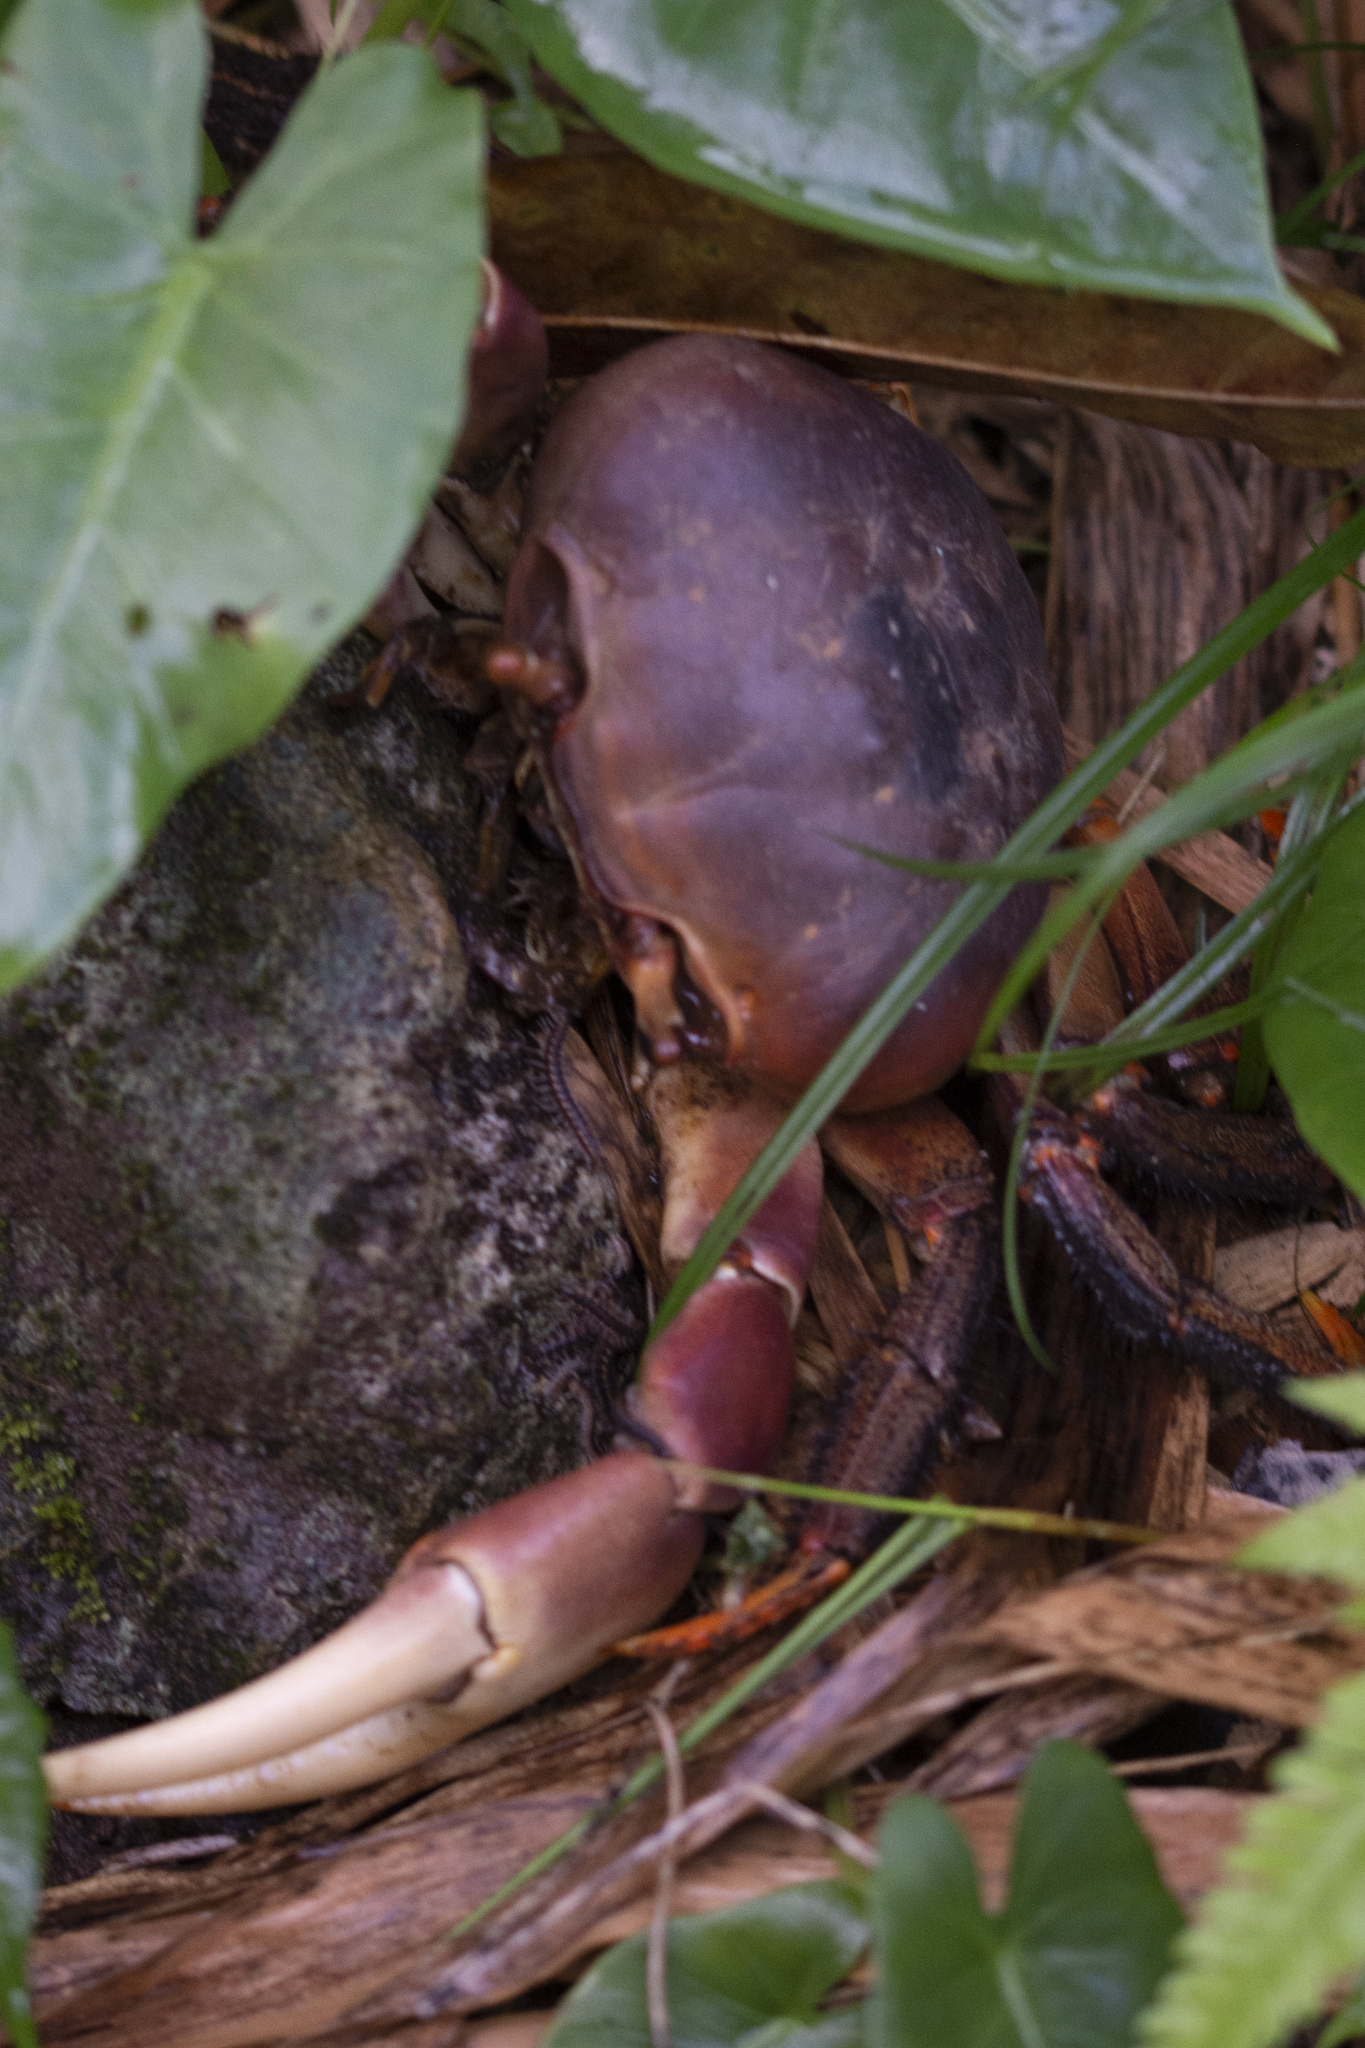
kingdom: Animalia
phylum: Arthropoda
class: Malacostraca
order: Decapoda
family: Gecarcinidae
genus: Cardisoma
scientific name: Cardisoma carnifex
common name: Brown land crab
